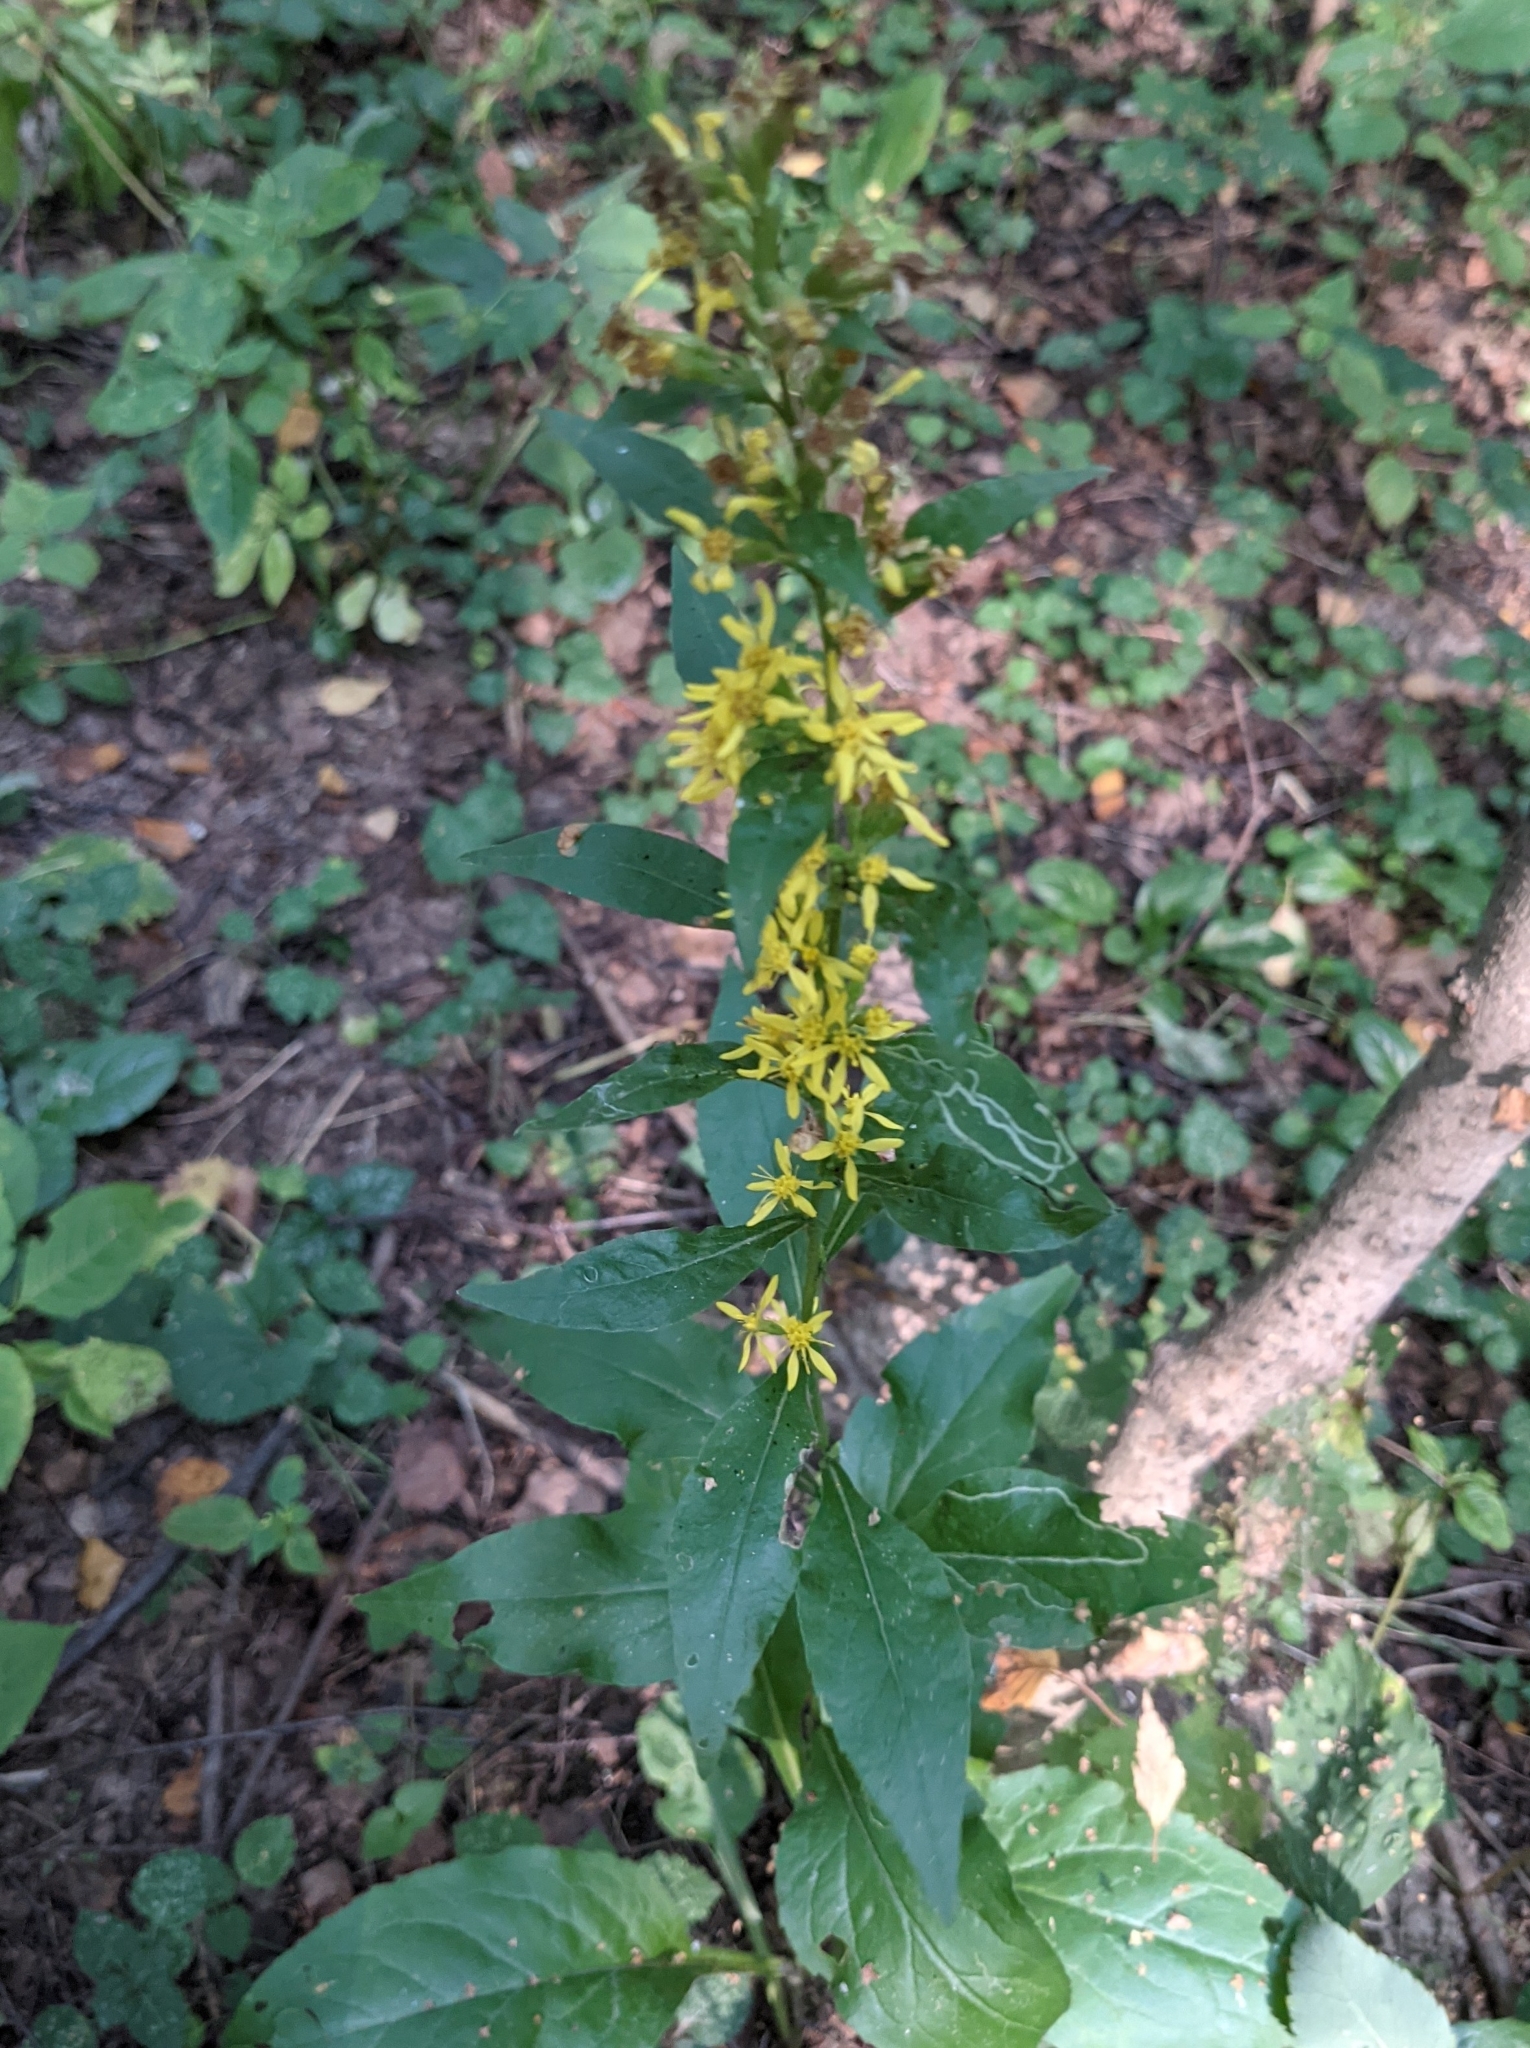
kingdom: Plantae
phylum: Tracheophyta
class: Magnoliopsida
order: Asterales
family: Asteraceae
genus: Solidago
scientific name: Solidago virgaurea
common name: Goldenrod
